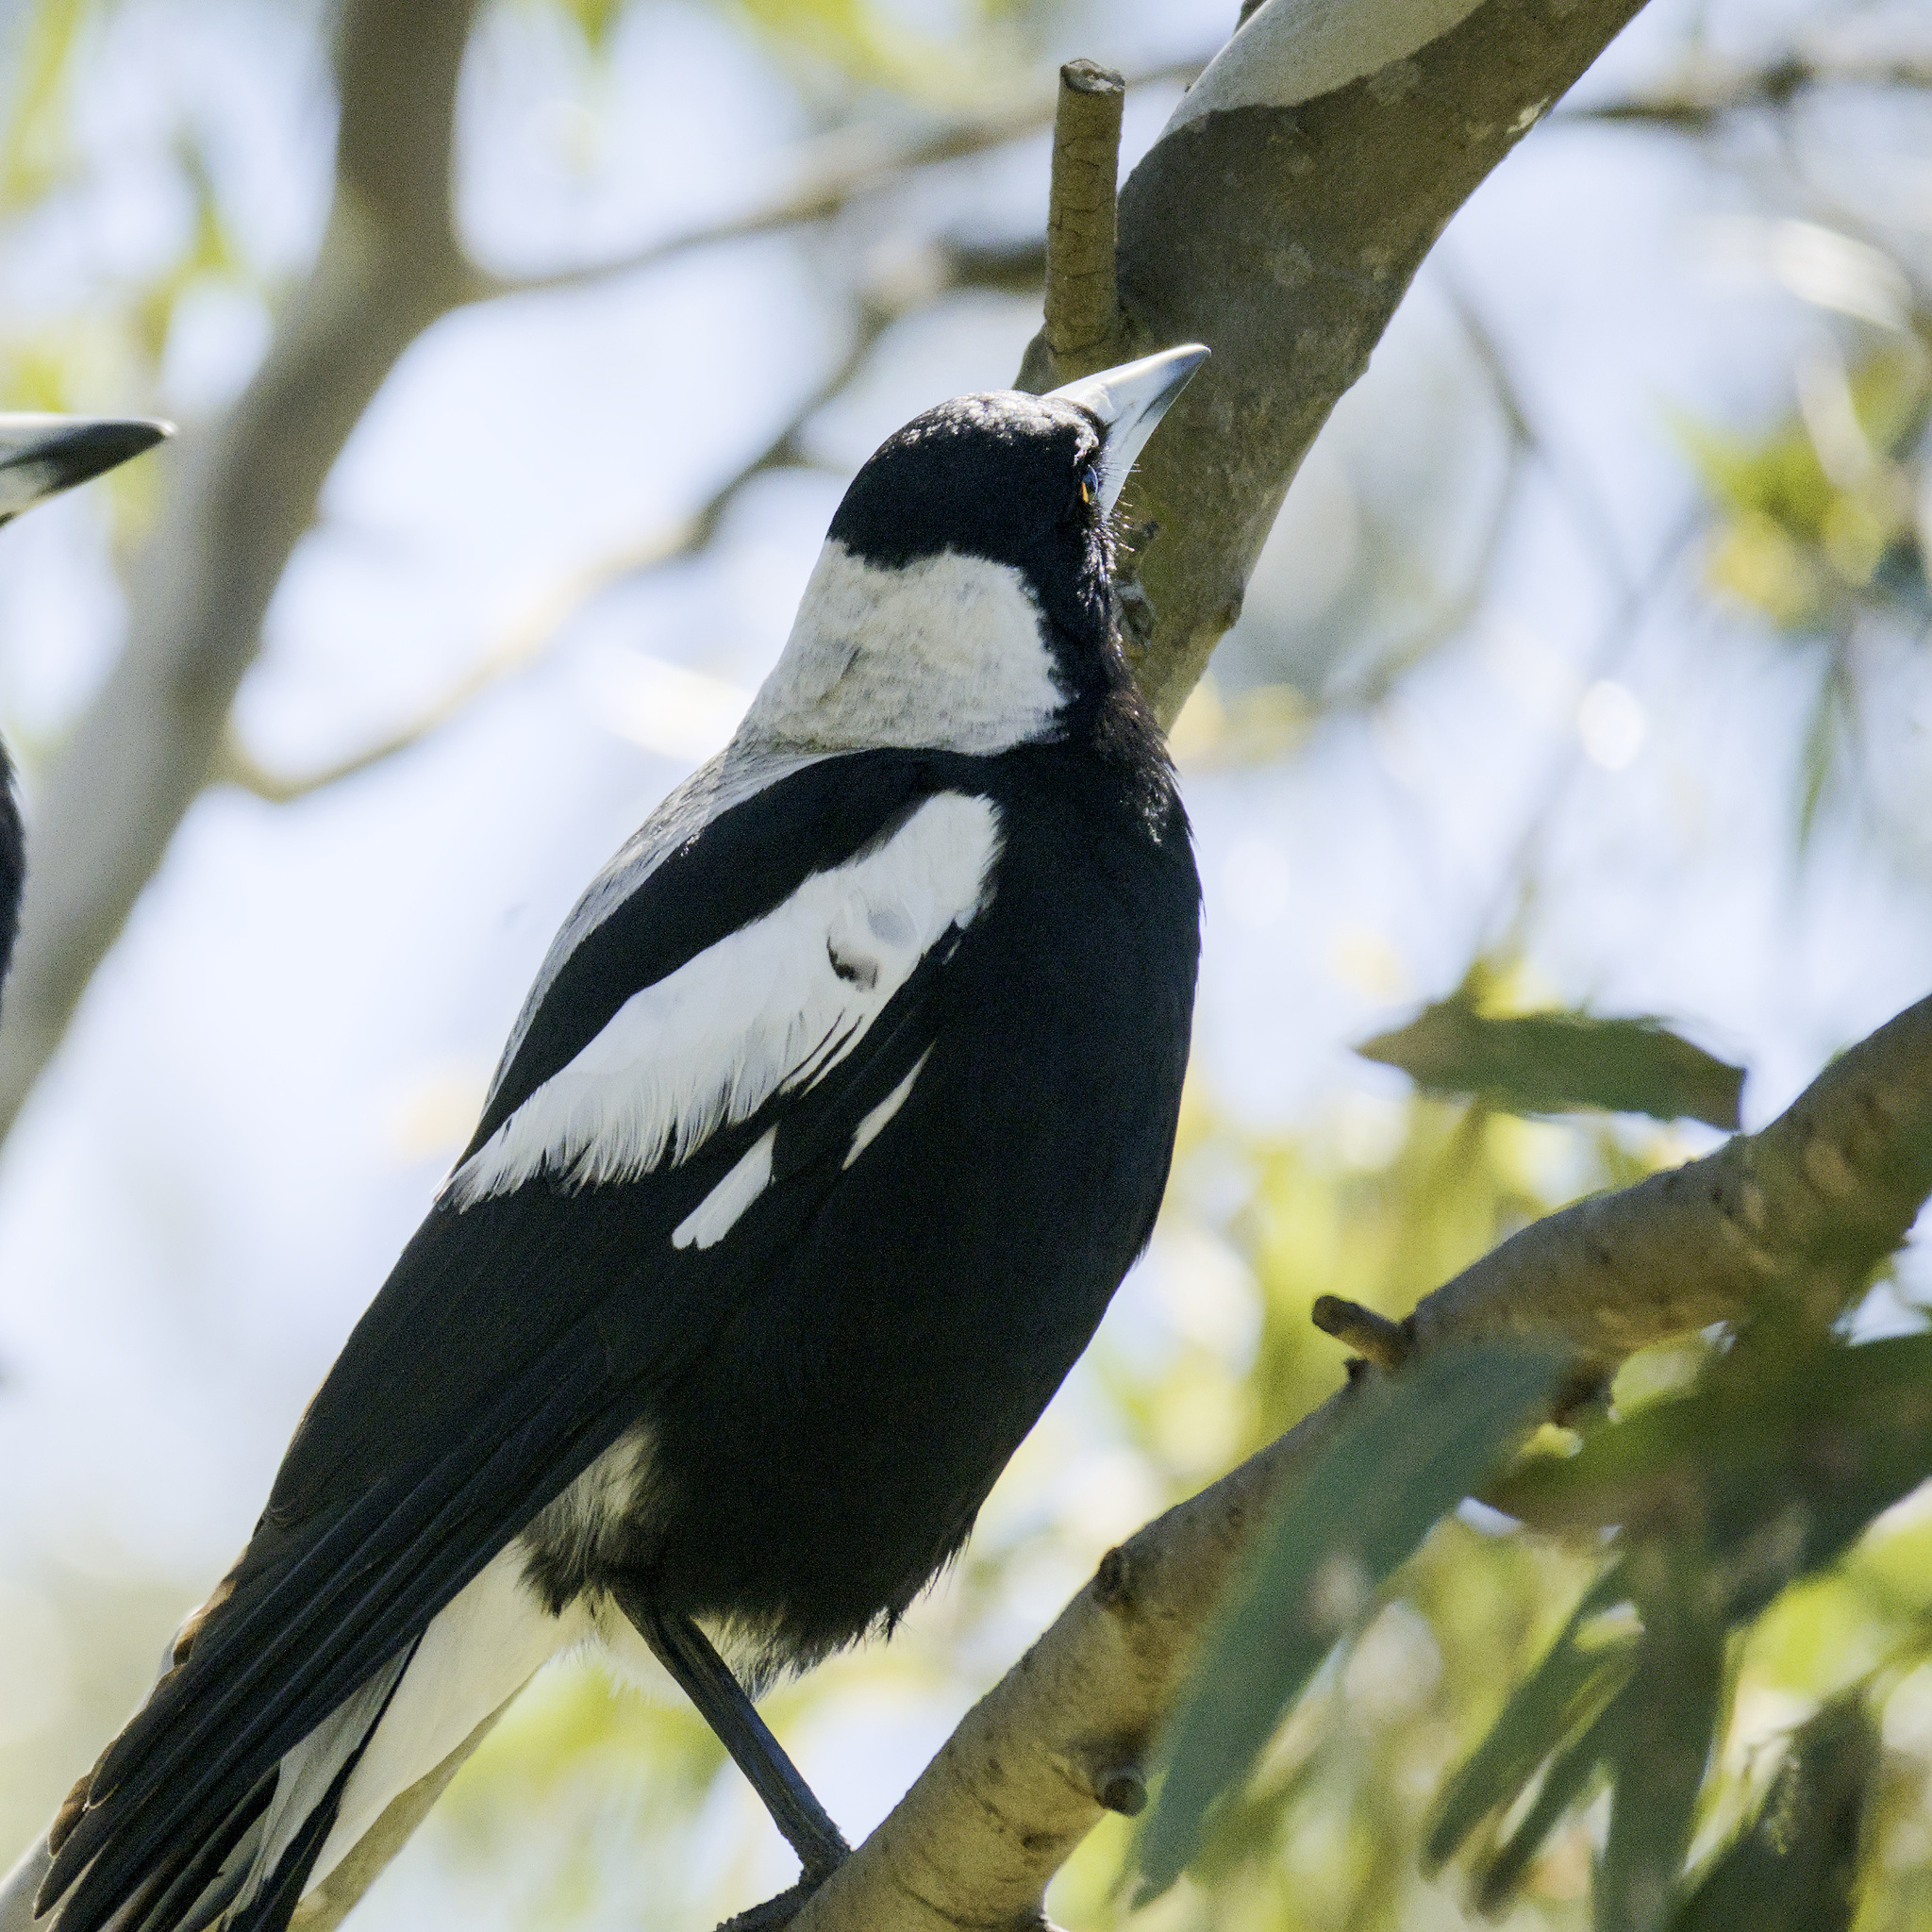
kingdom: Animalia
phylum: Chordata
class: Aves
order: Passeriformes
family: Cracticidae
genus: Gymnorhina
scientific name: Gymnorhina tibicen
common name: Australian magpie
